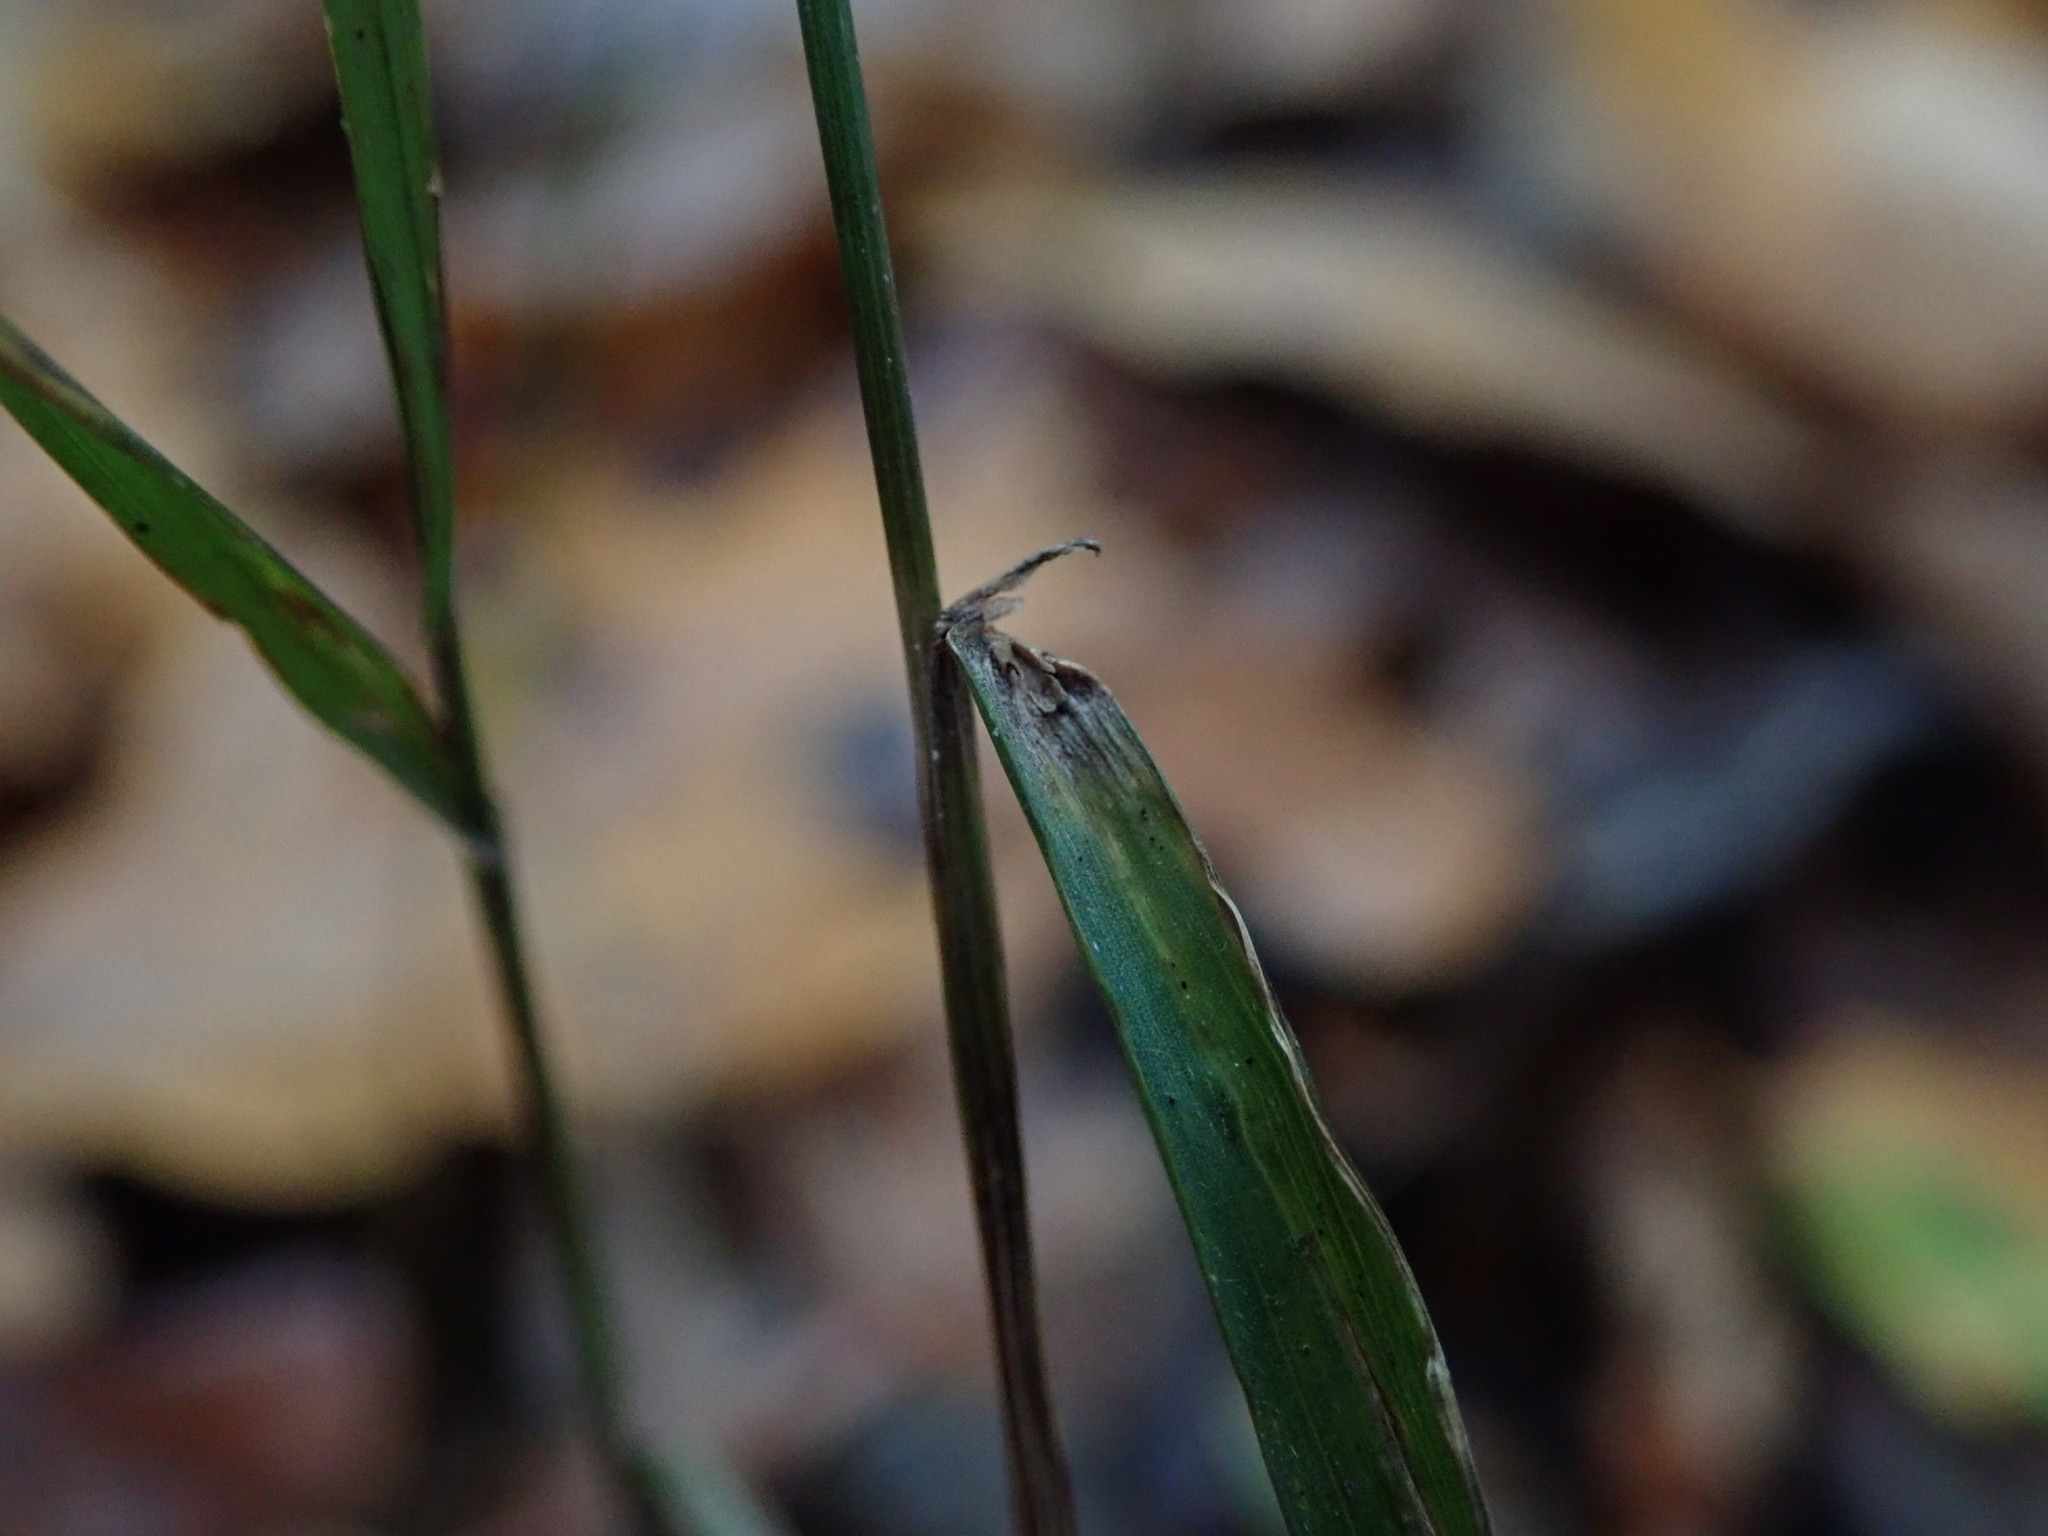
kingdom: Plantae
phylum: Tracheophyta
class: Liliopsida
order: Poales
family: Poaceae
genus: Melica
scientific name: Melica uniflora
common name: Wood melick
